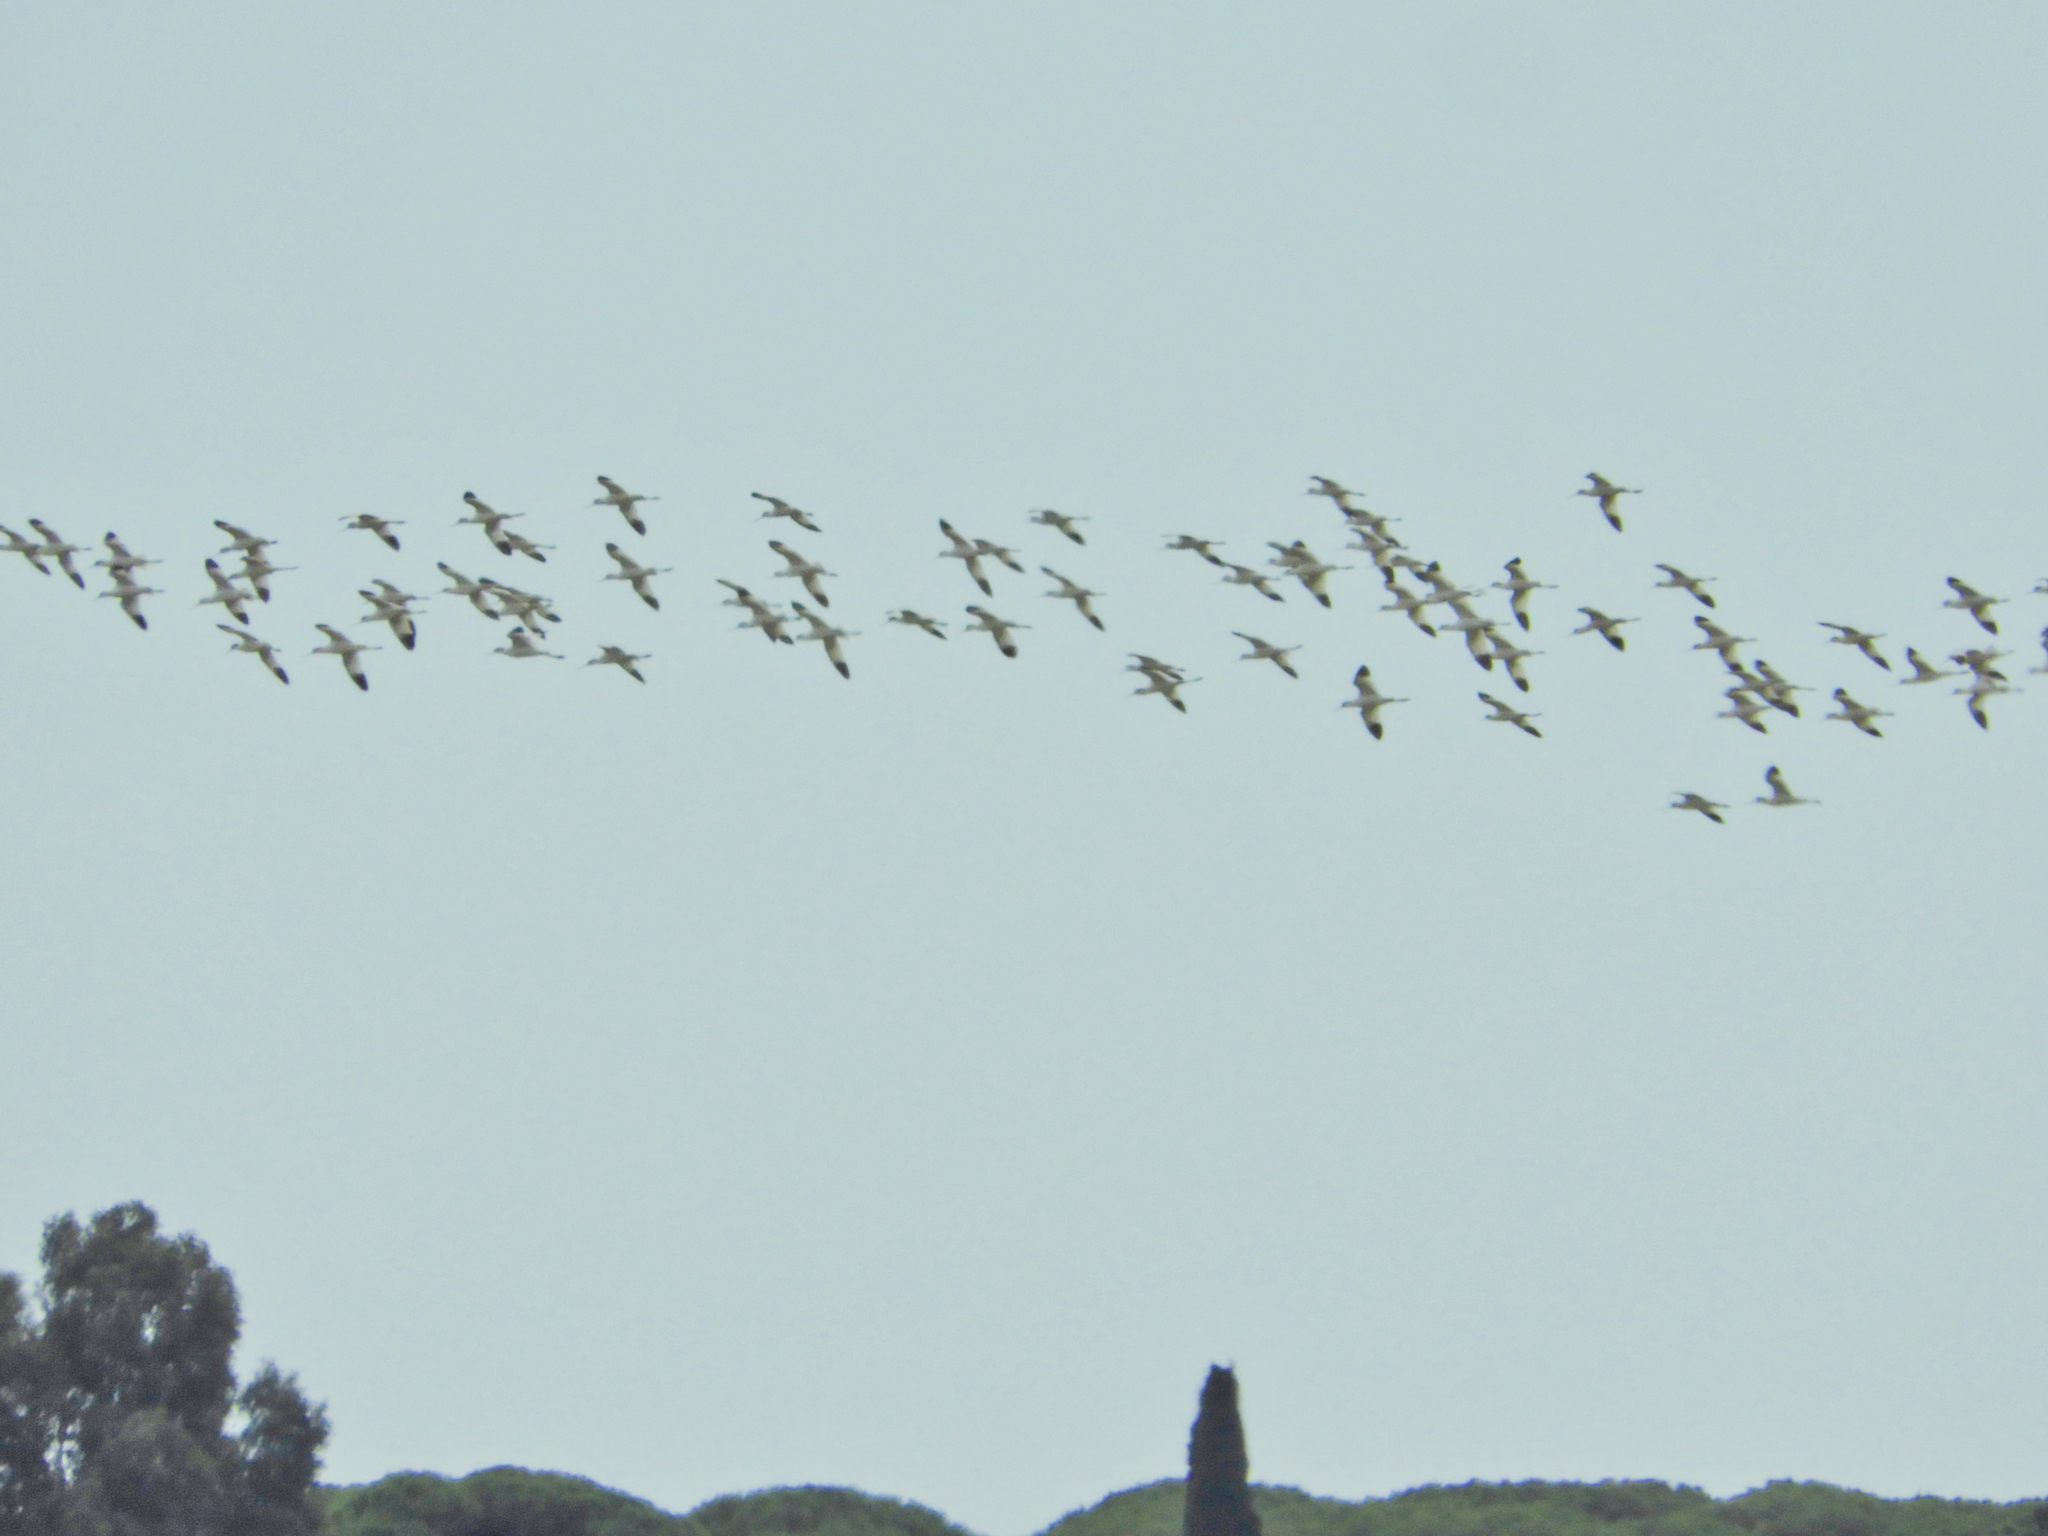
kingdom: Animalia
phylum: Chordata
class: Aves
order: Charadriiformes
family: Recurvirostridae
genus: Recurvirostra
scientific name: Recurvirostra avosetta
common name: Pied avocet
